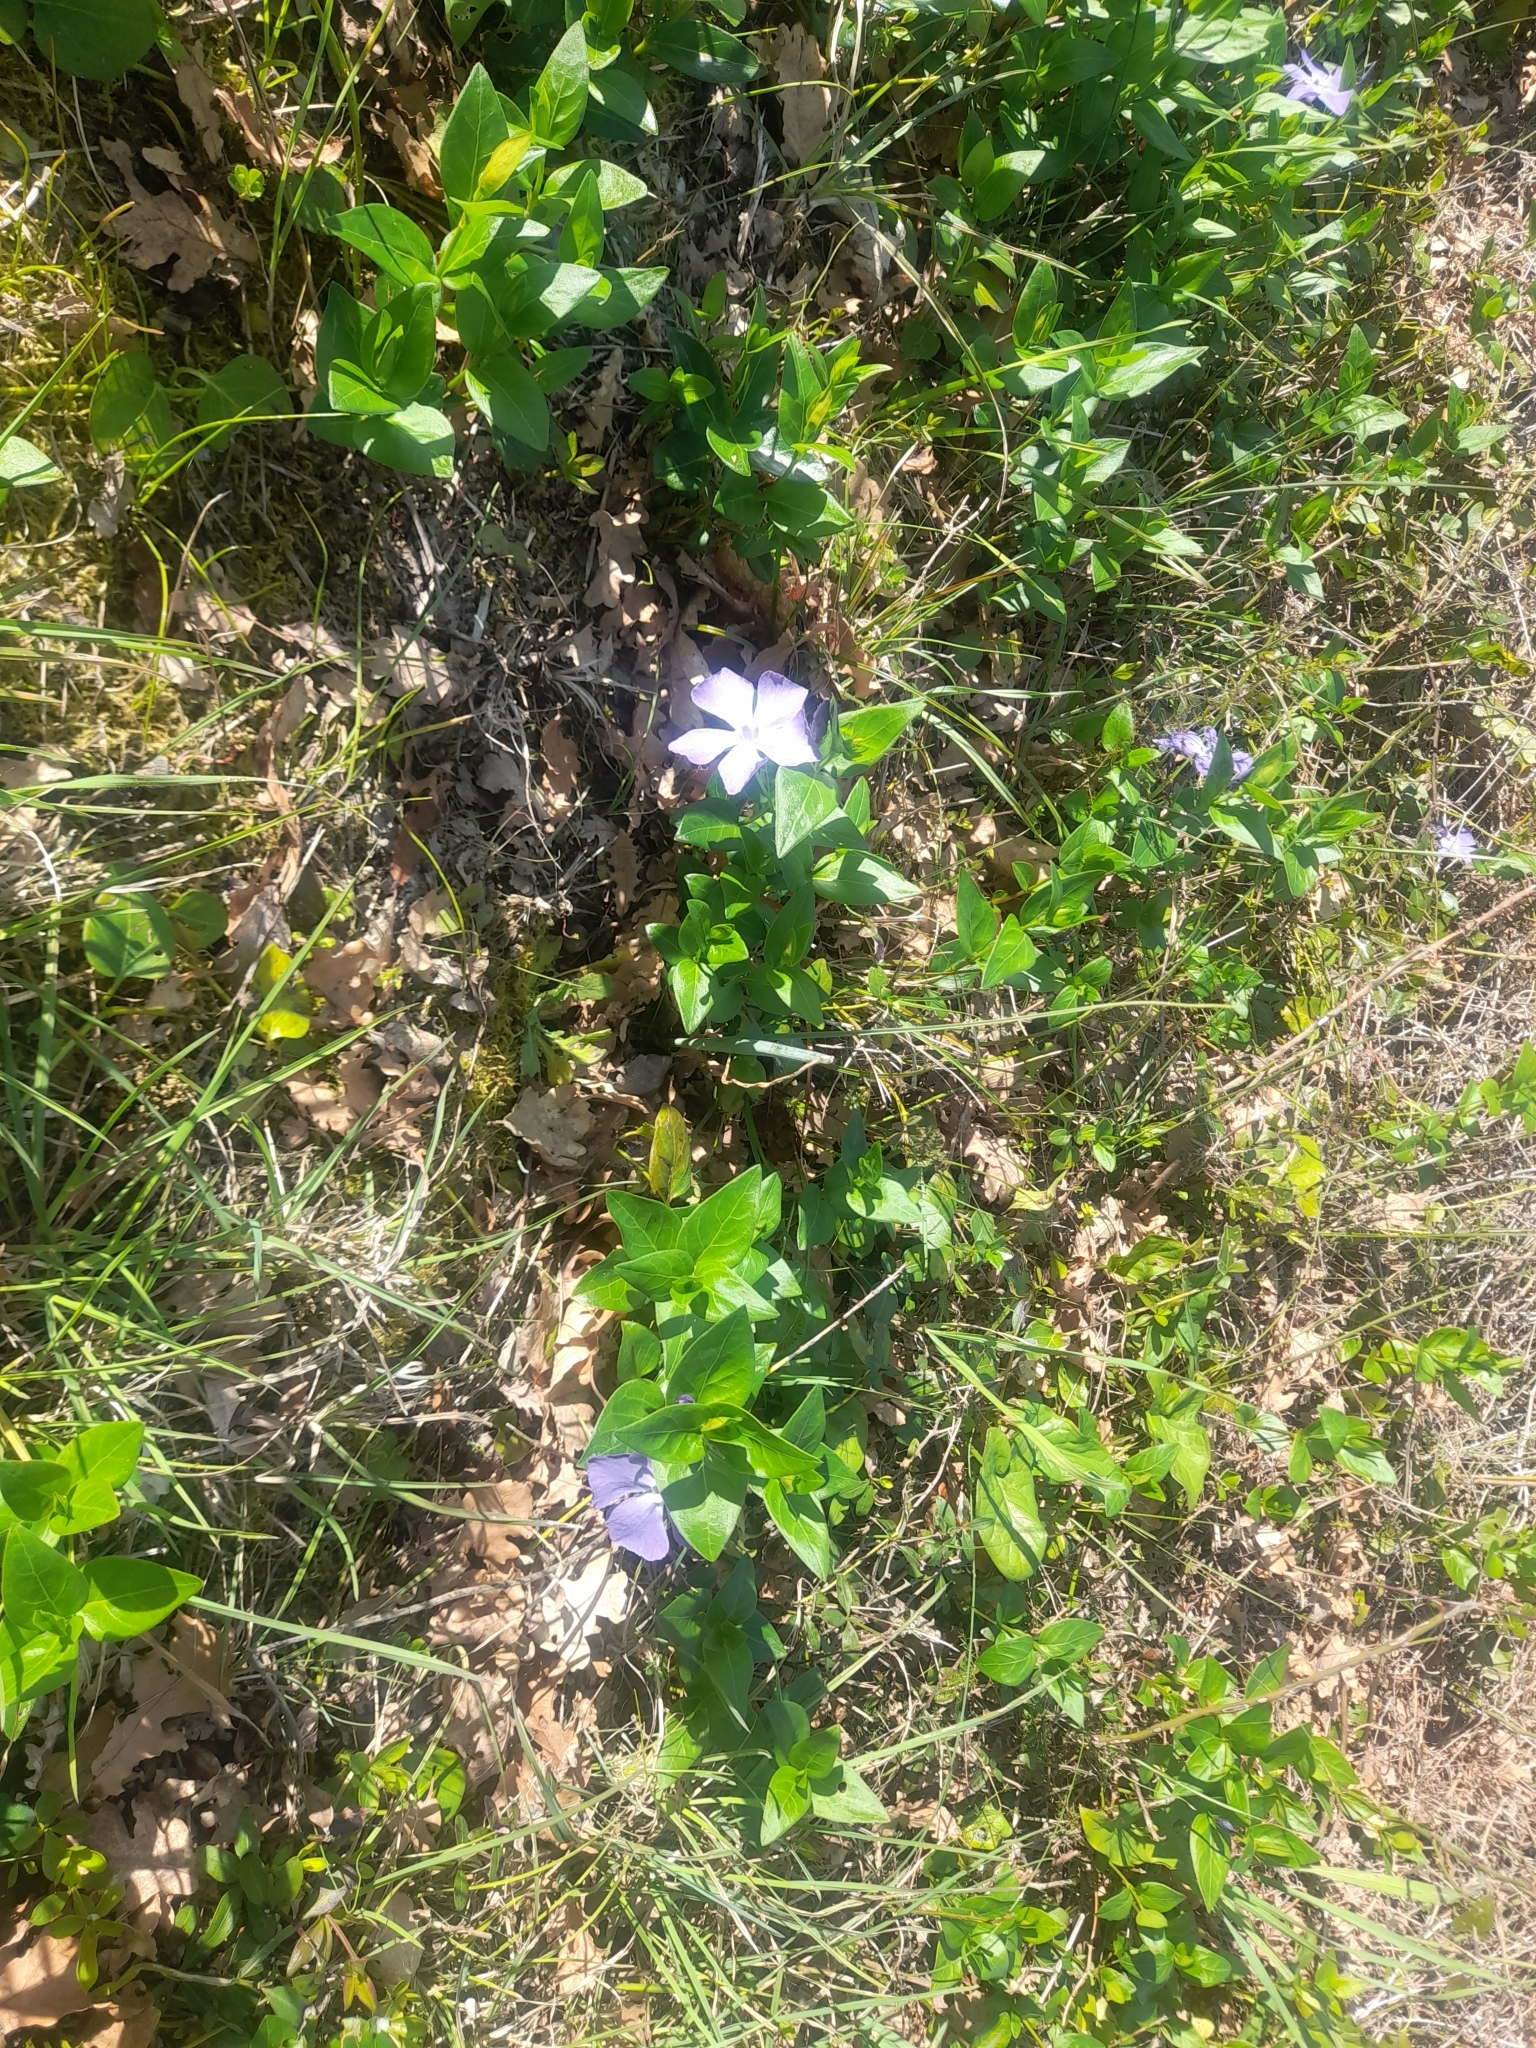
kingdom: Plantae
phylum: Tracheophyta
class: Magnoliopsida
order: Gentianales
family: Apocynaceae
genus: Vinca
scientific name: Vinca major
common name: Greater periwinkle
